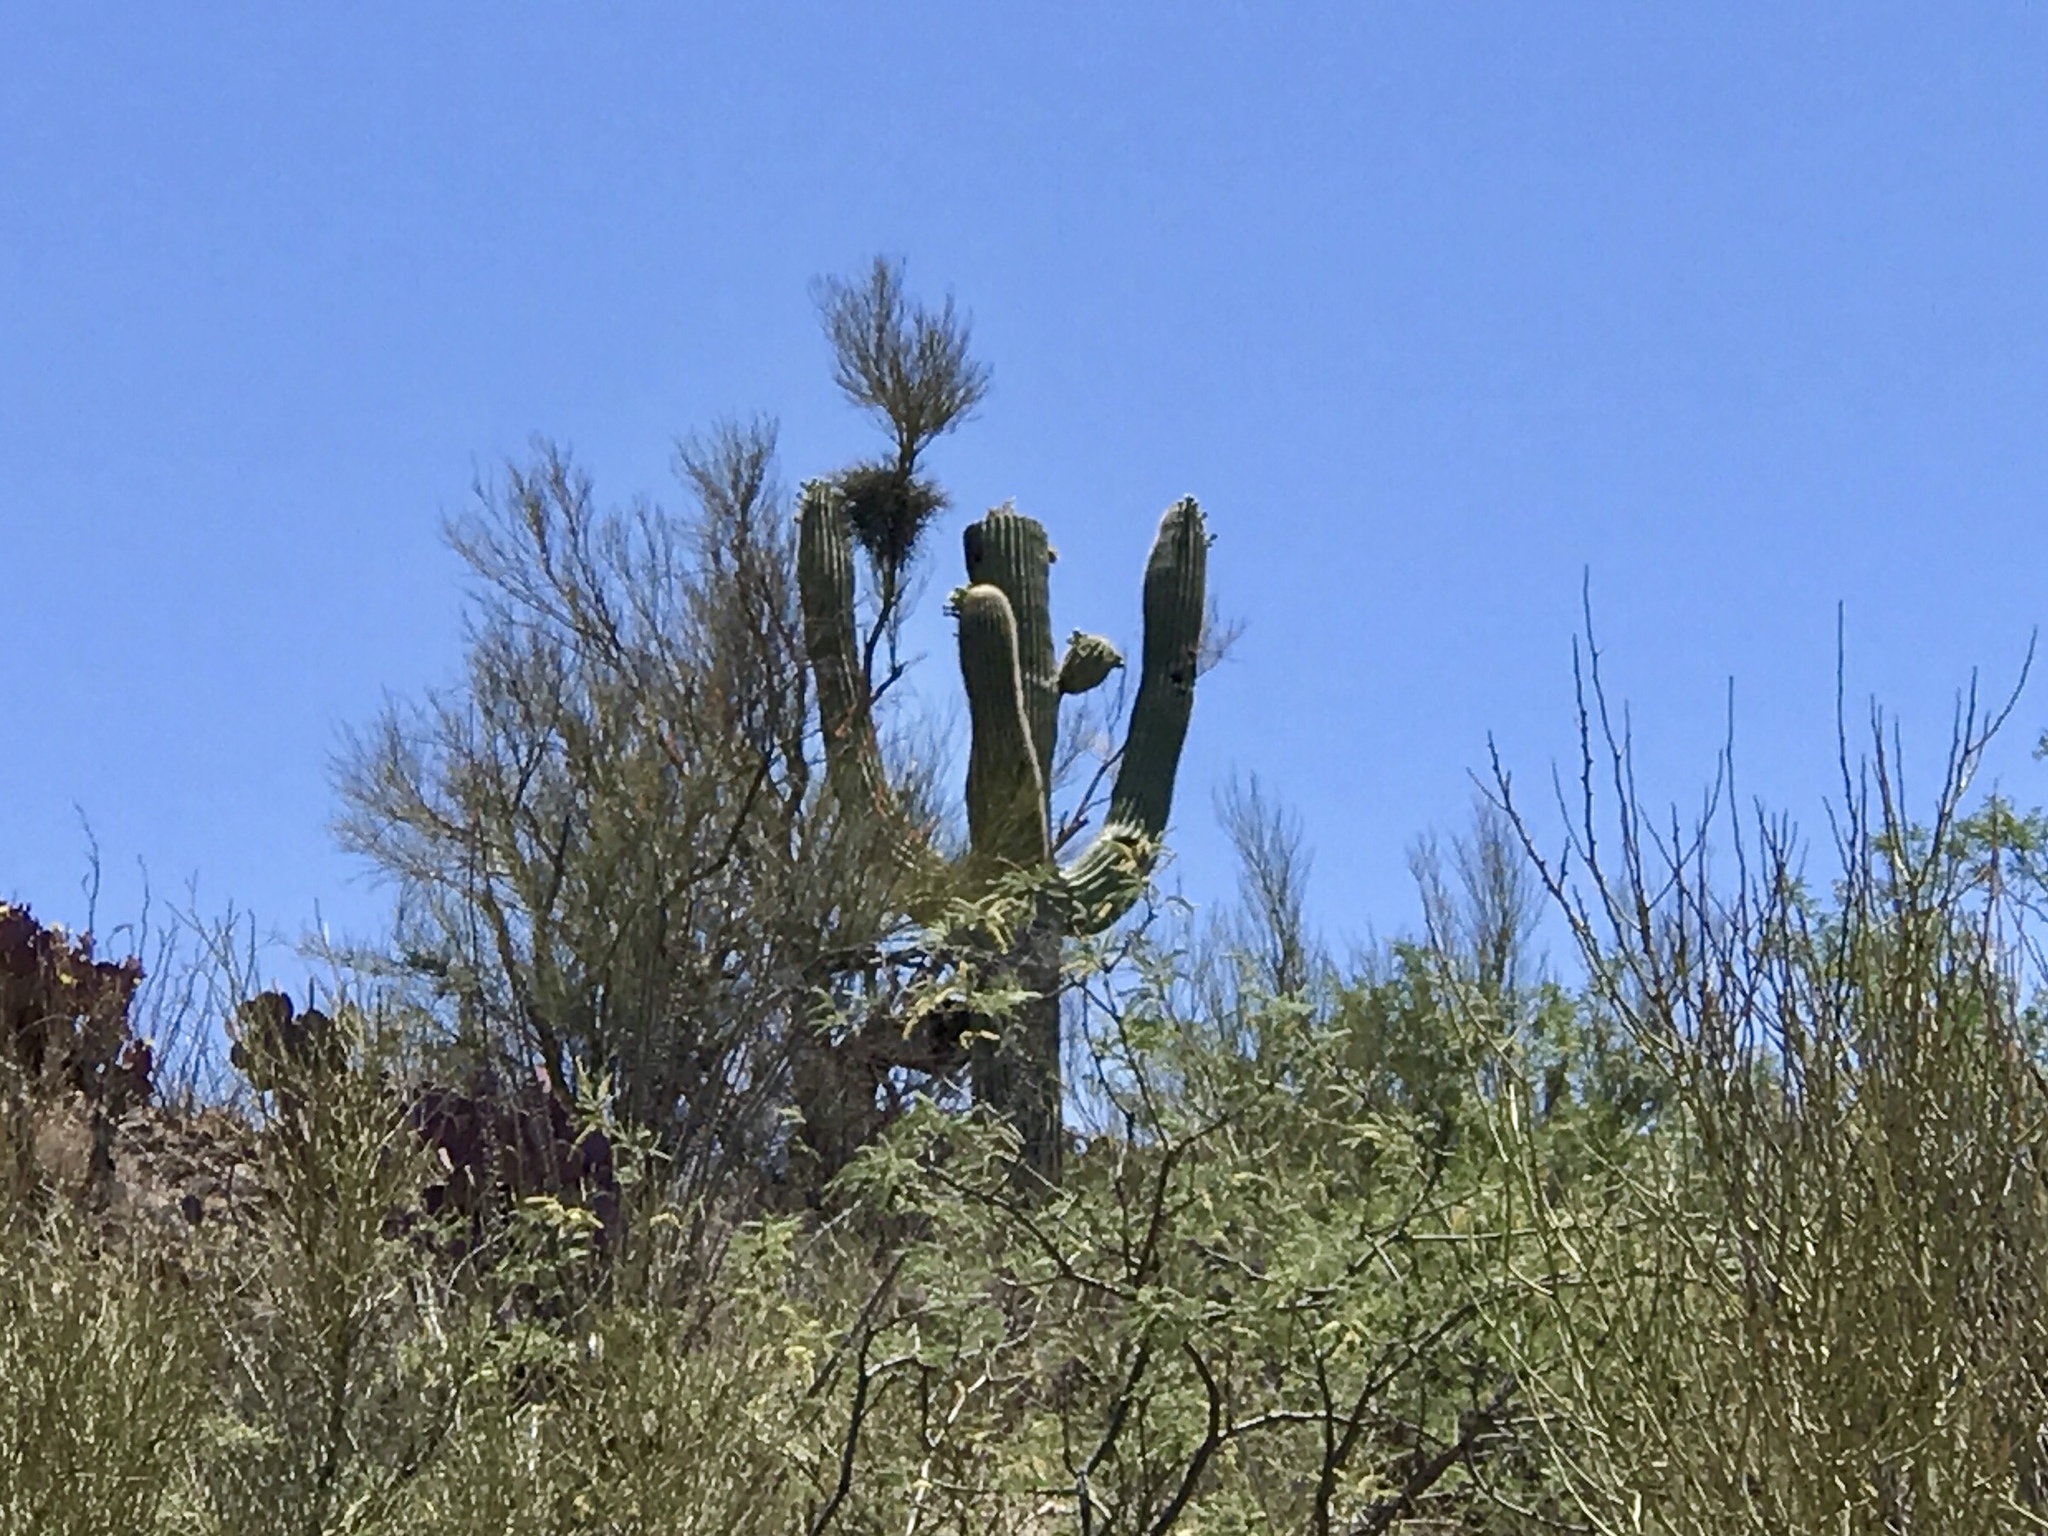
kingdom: Plantae
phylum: Tracheophyta
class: Magnoliopsida
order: Caryophyllales
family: Cactaceae
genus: Carnegiea
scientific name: Carnegiea gigantea
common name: Saguaro
